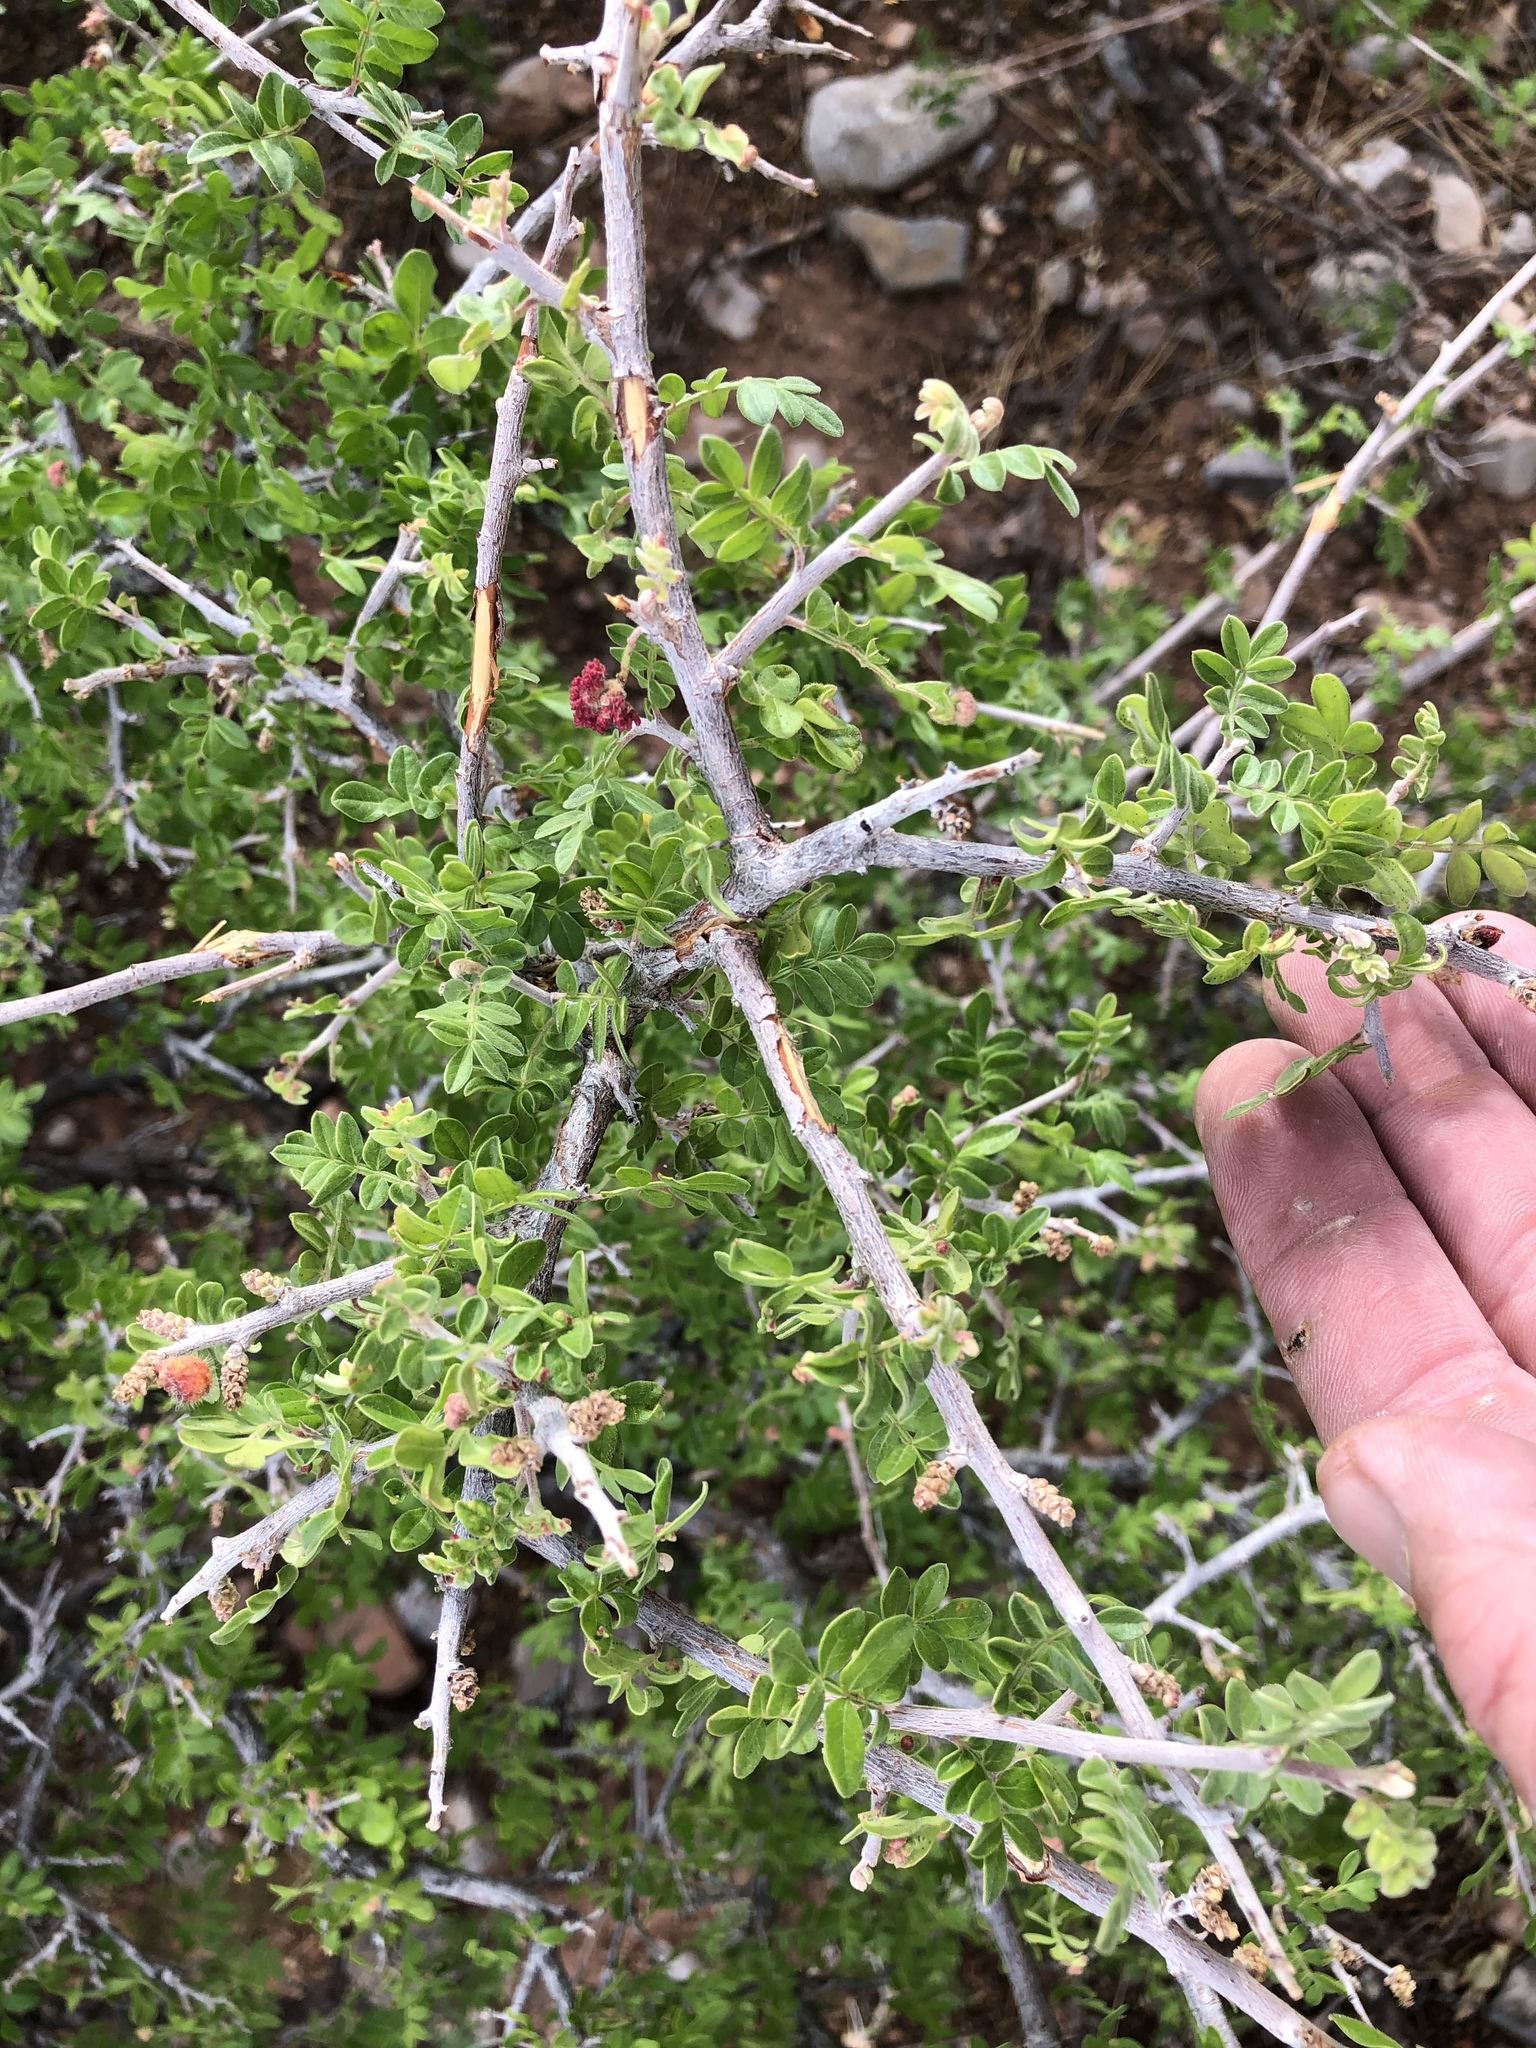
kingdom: Plantae
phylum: Tracheophyta
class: Magnoliopsida
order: Sapindales
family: Anacardiaceae
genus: Rhus
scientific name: Rhus microphylla
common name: Desert sumac
